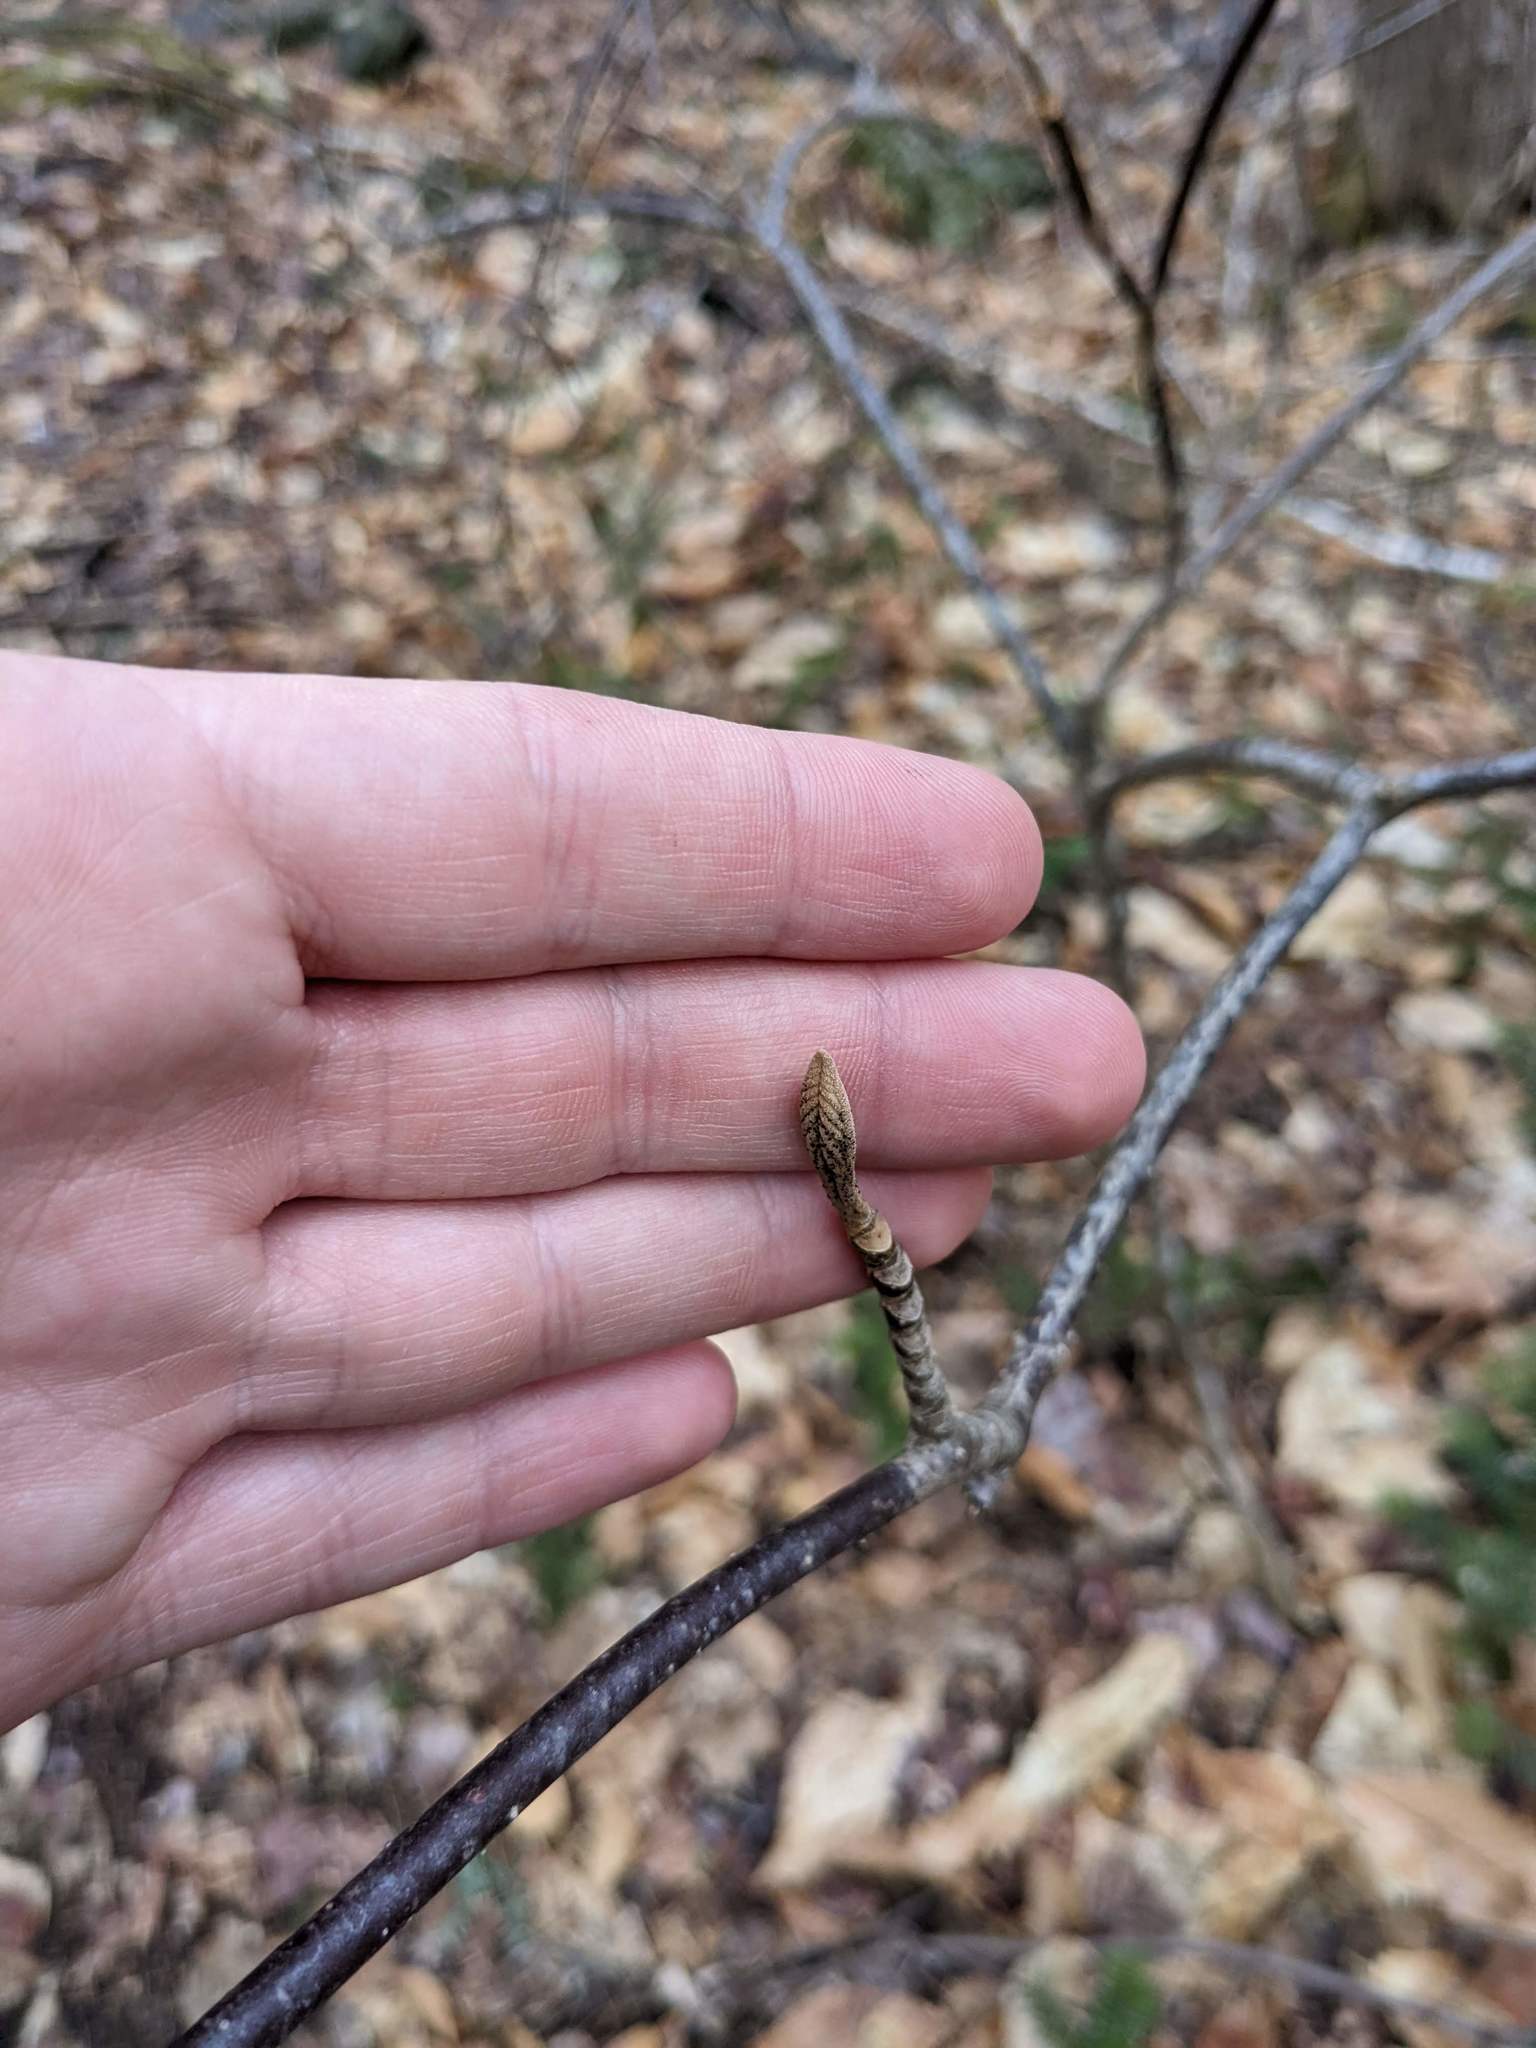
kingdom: Plantae
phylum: Tracheophyta
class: Magnoliopsida
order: Dipsacales
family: Viburnaceae
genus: Viburnum
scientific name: Viburnum lantanoides
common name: Hobblebush
